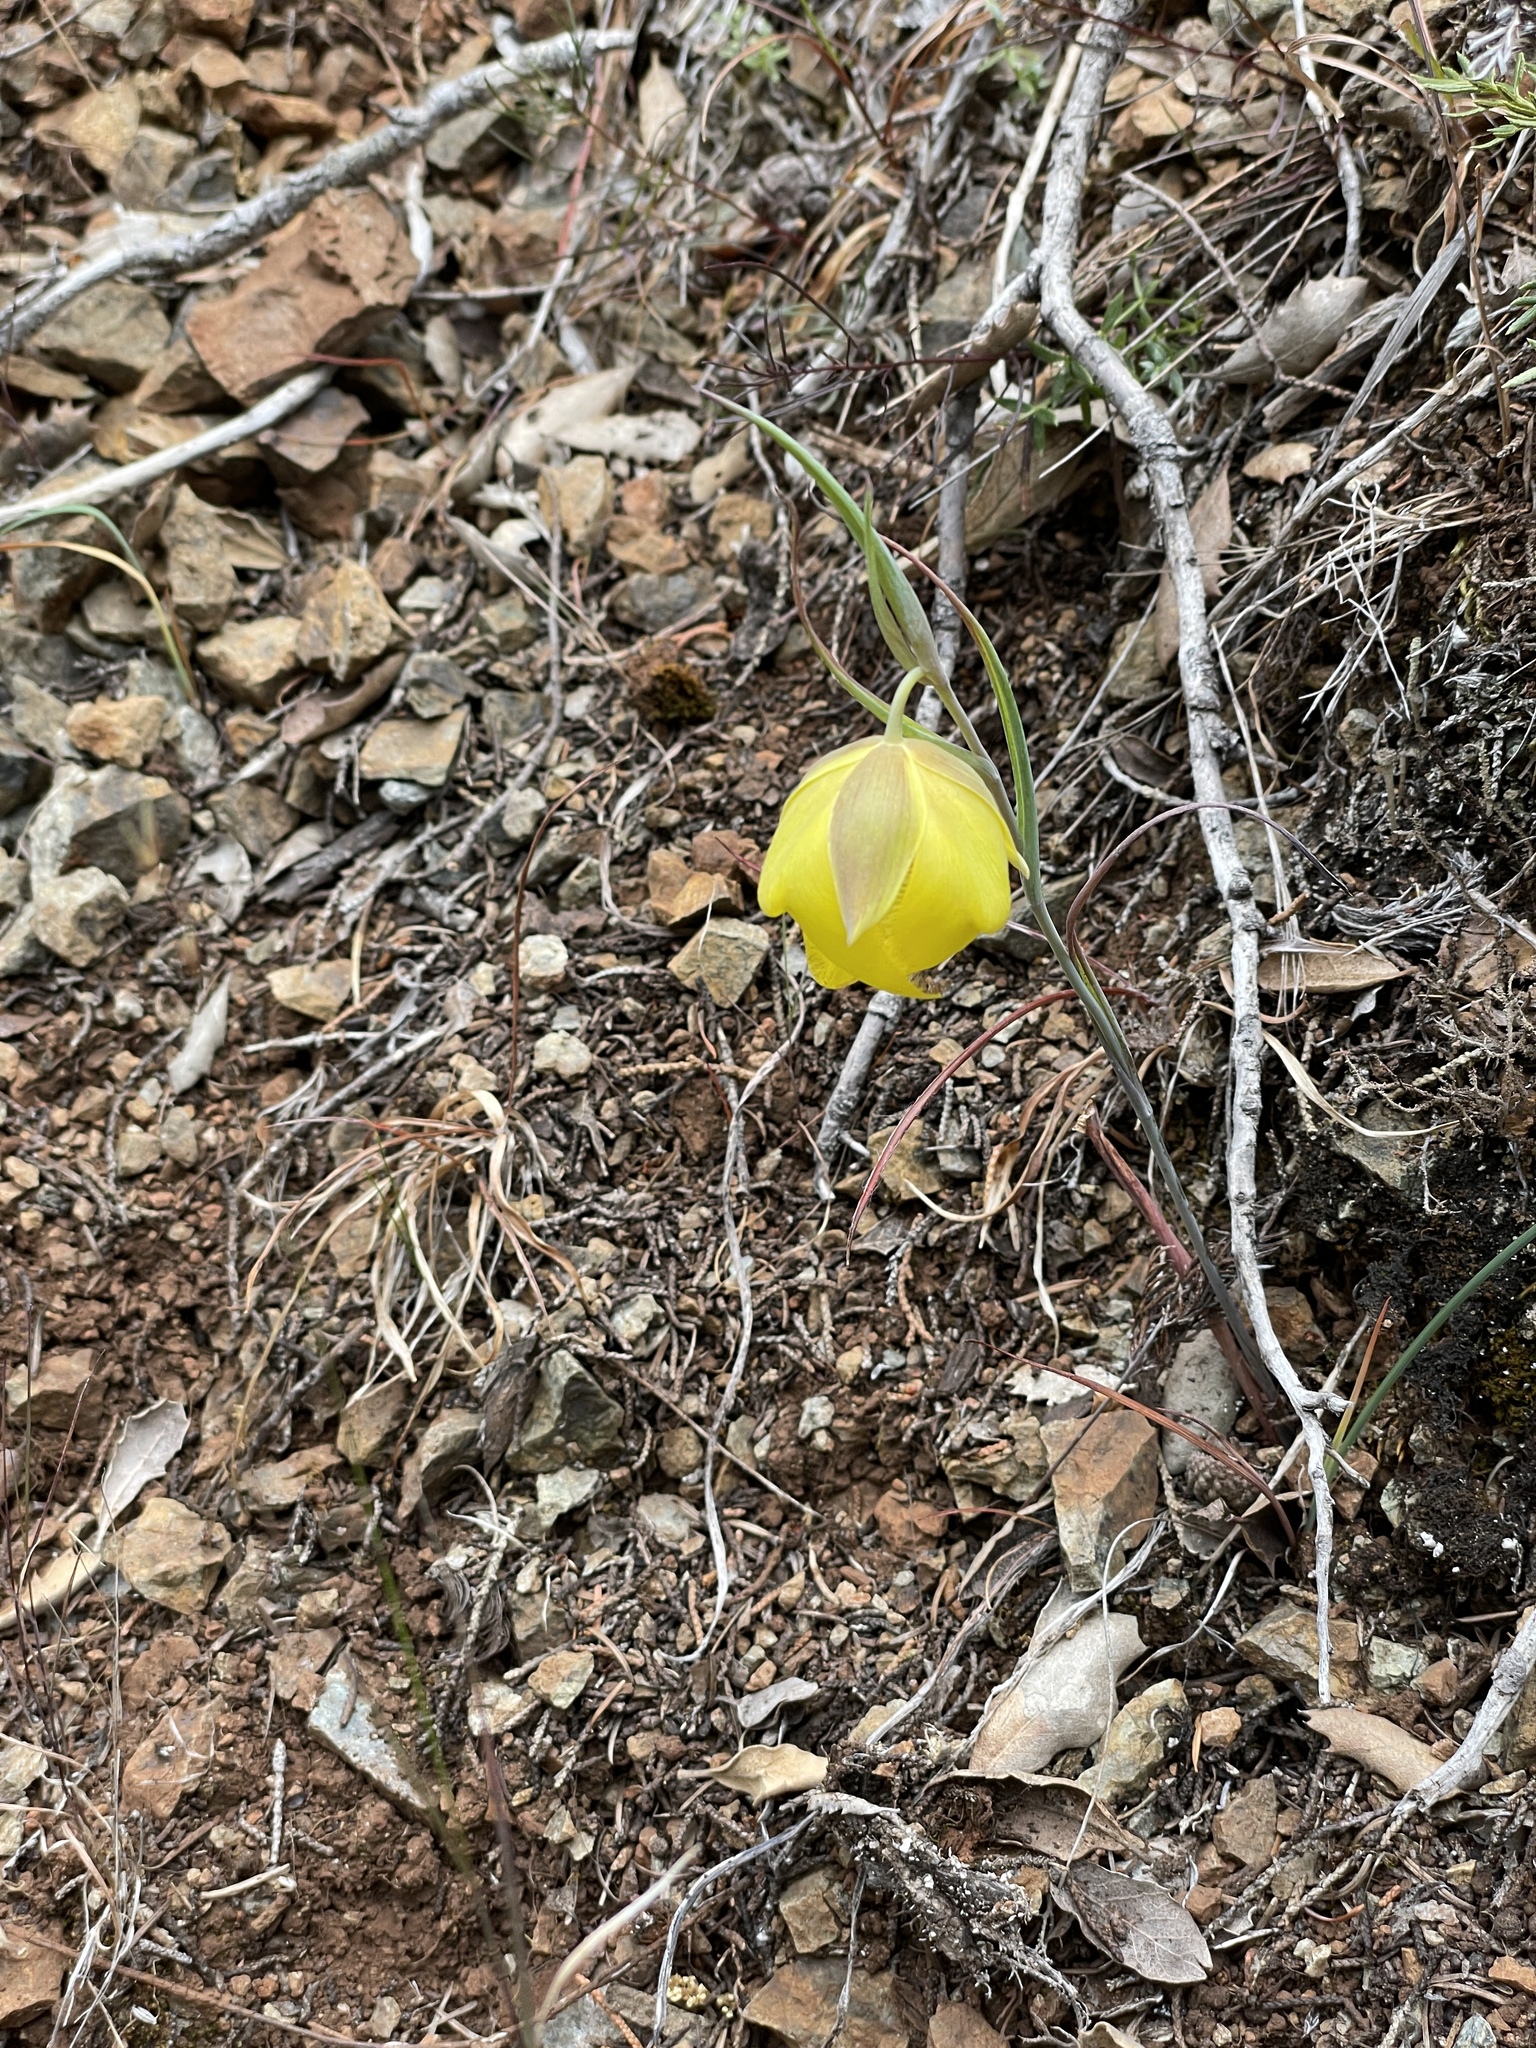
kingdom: Plantae
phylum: Tracheophyta
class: Liliopsida
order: Liliales
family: Liliaceae
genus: Calochortus
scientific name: Calochortus raichei
